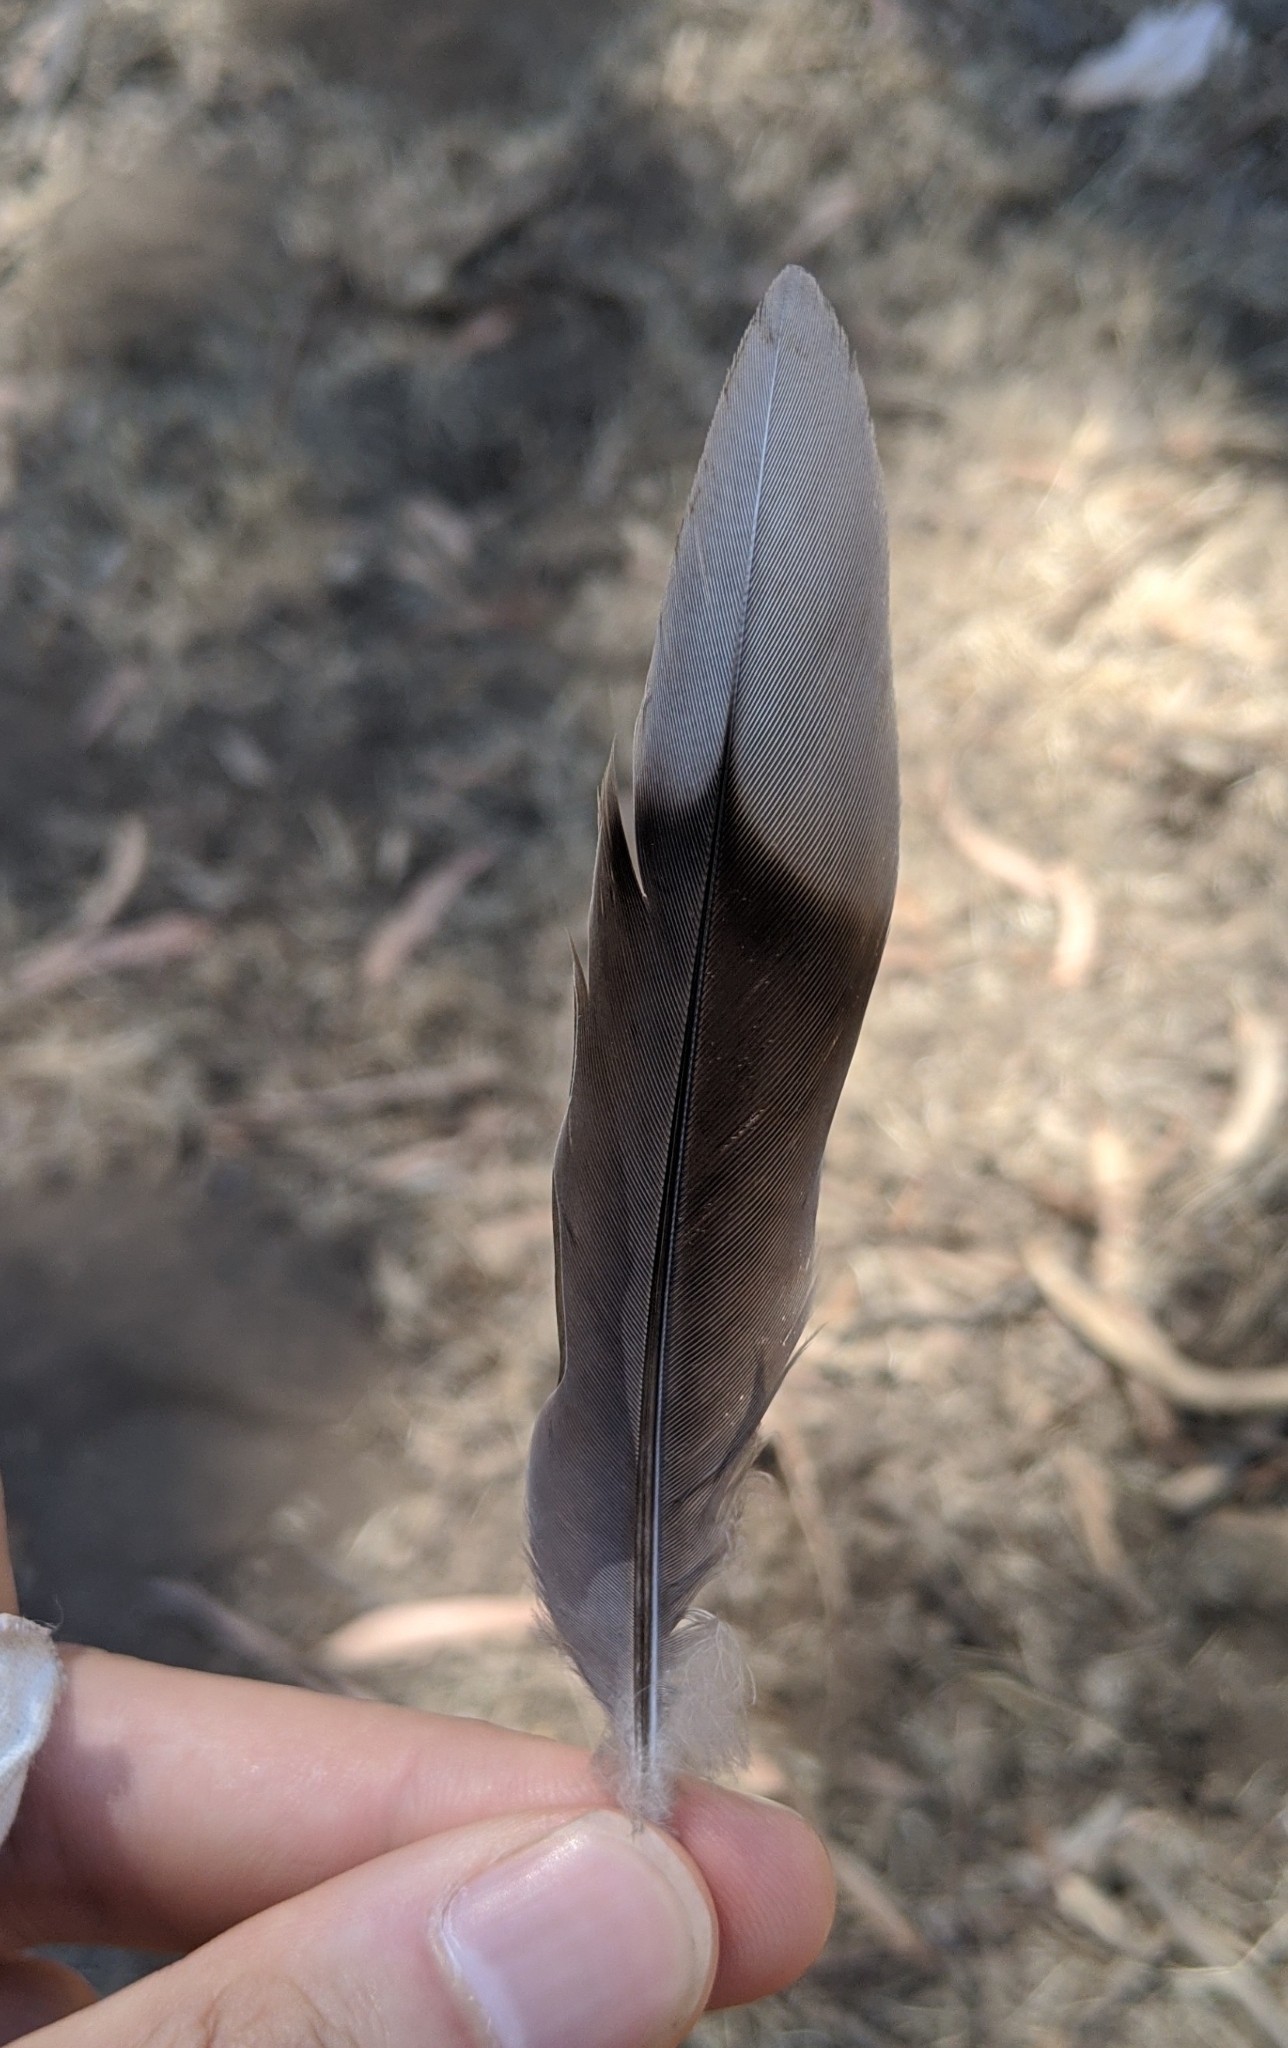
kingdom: Animalia
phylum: Chordata
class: Aves
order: Columbiformes
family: Columbidae
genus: Zenaida
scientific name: Zenaida macroura
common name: Mourning dove
